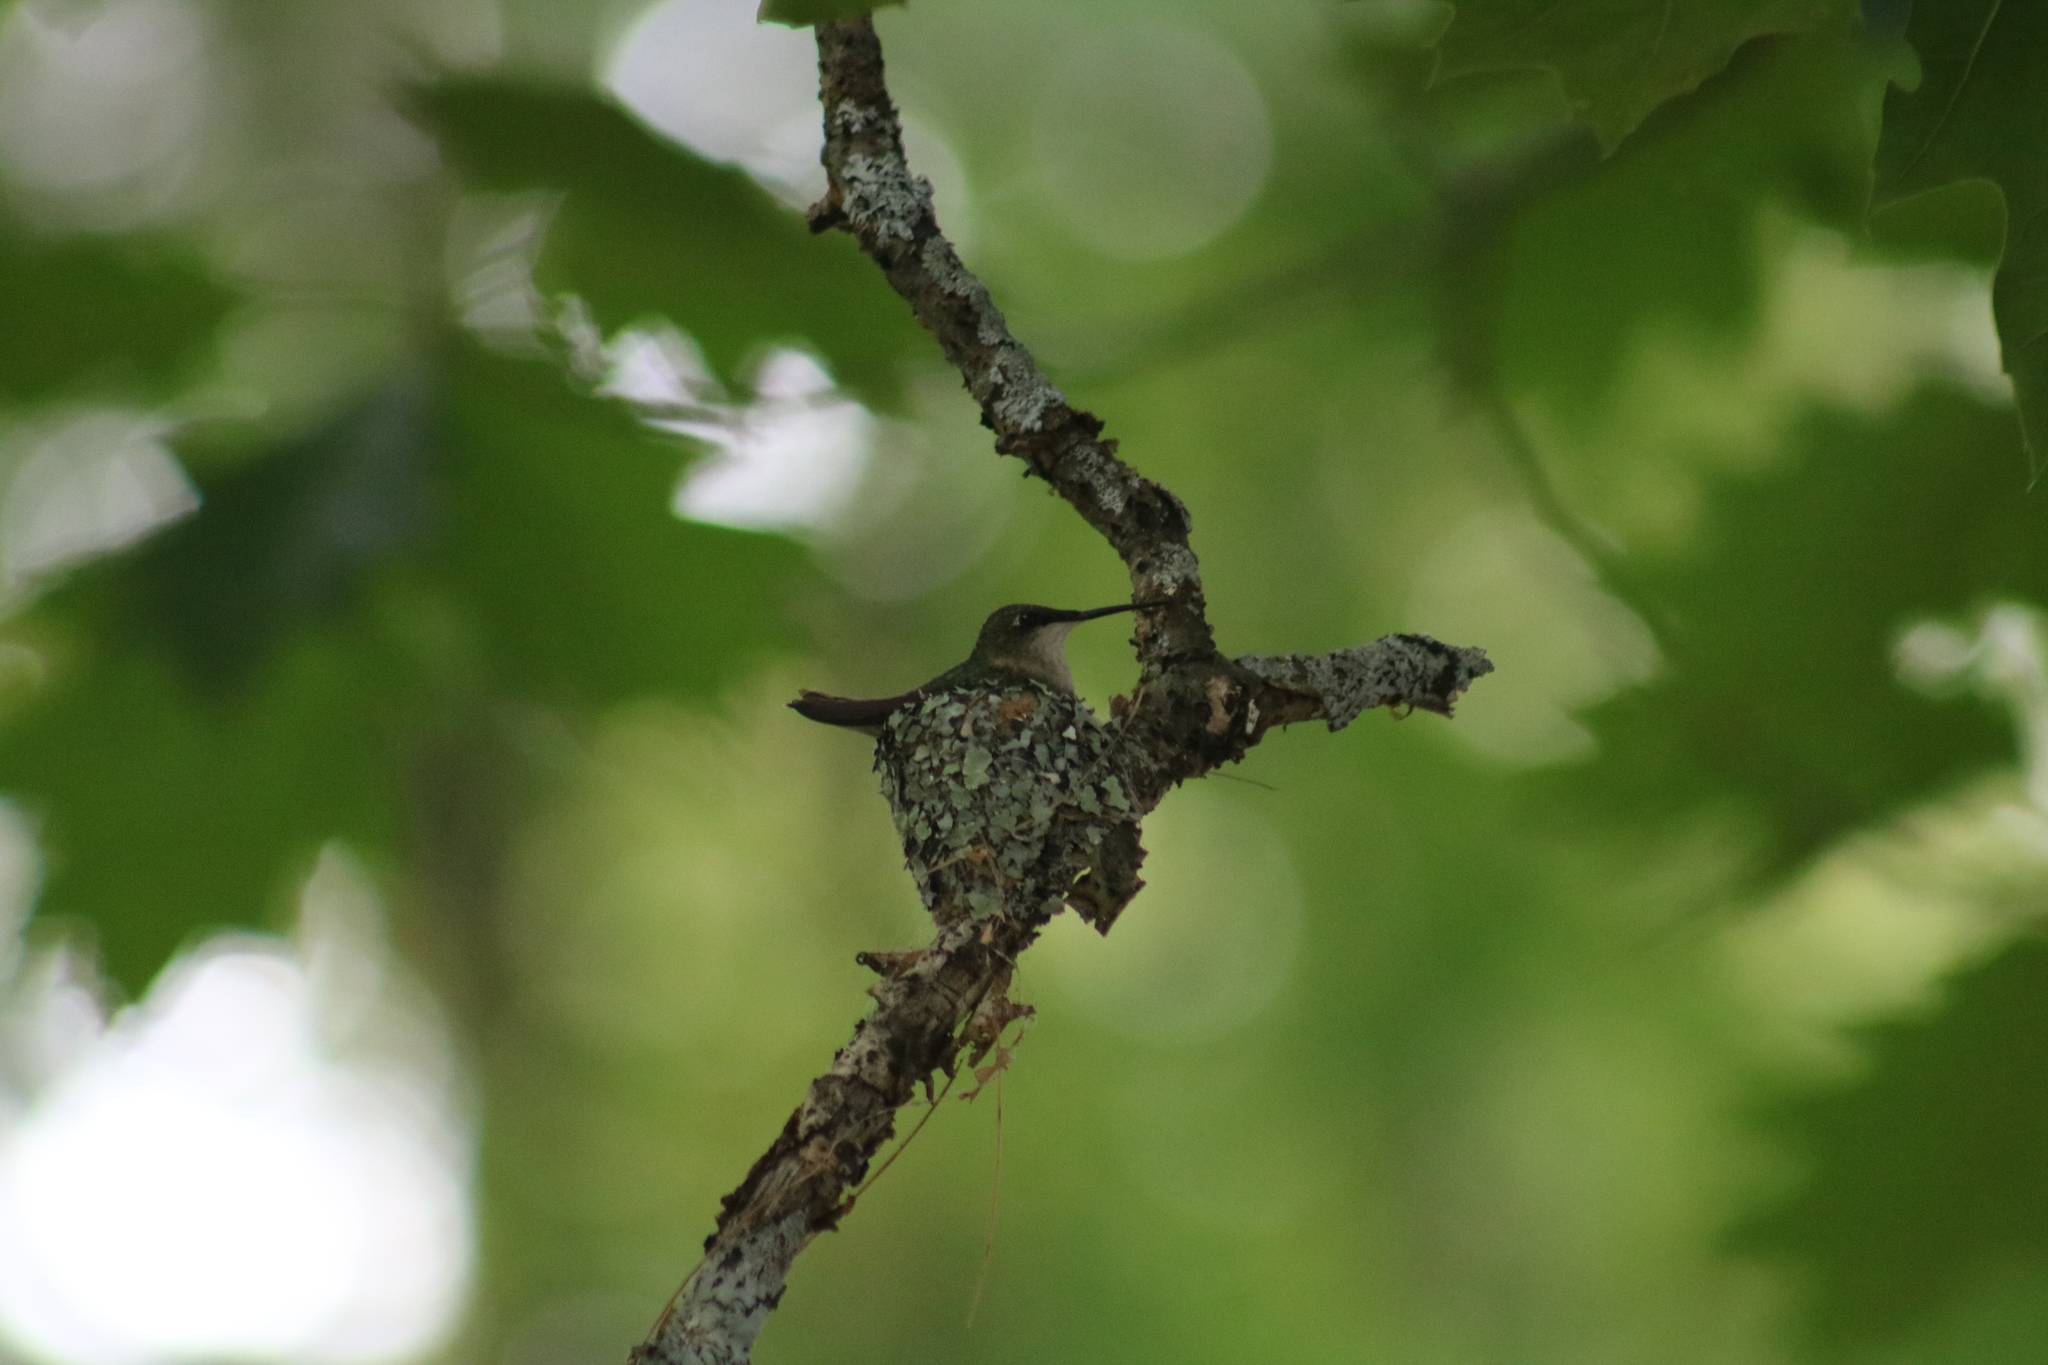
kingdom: Animalia
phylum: Chordata
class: Aves
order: Apodiformes
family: Trochilidae
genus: Archilochus
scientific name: Archilochus colubris
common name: Ruby-throated hummingbird
